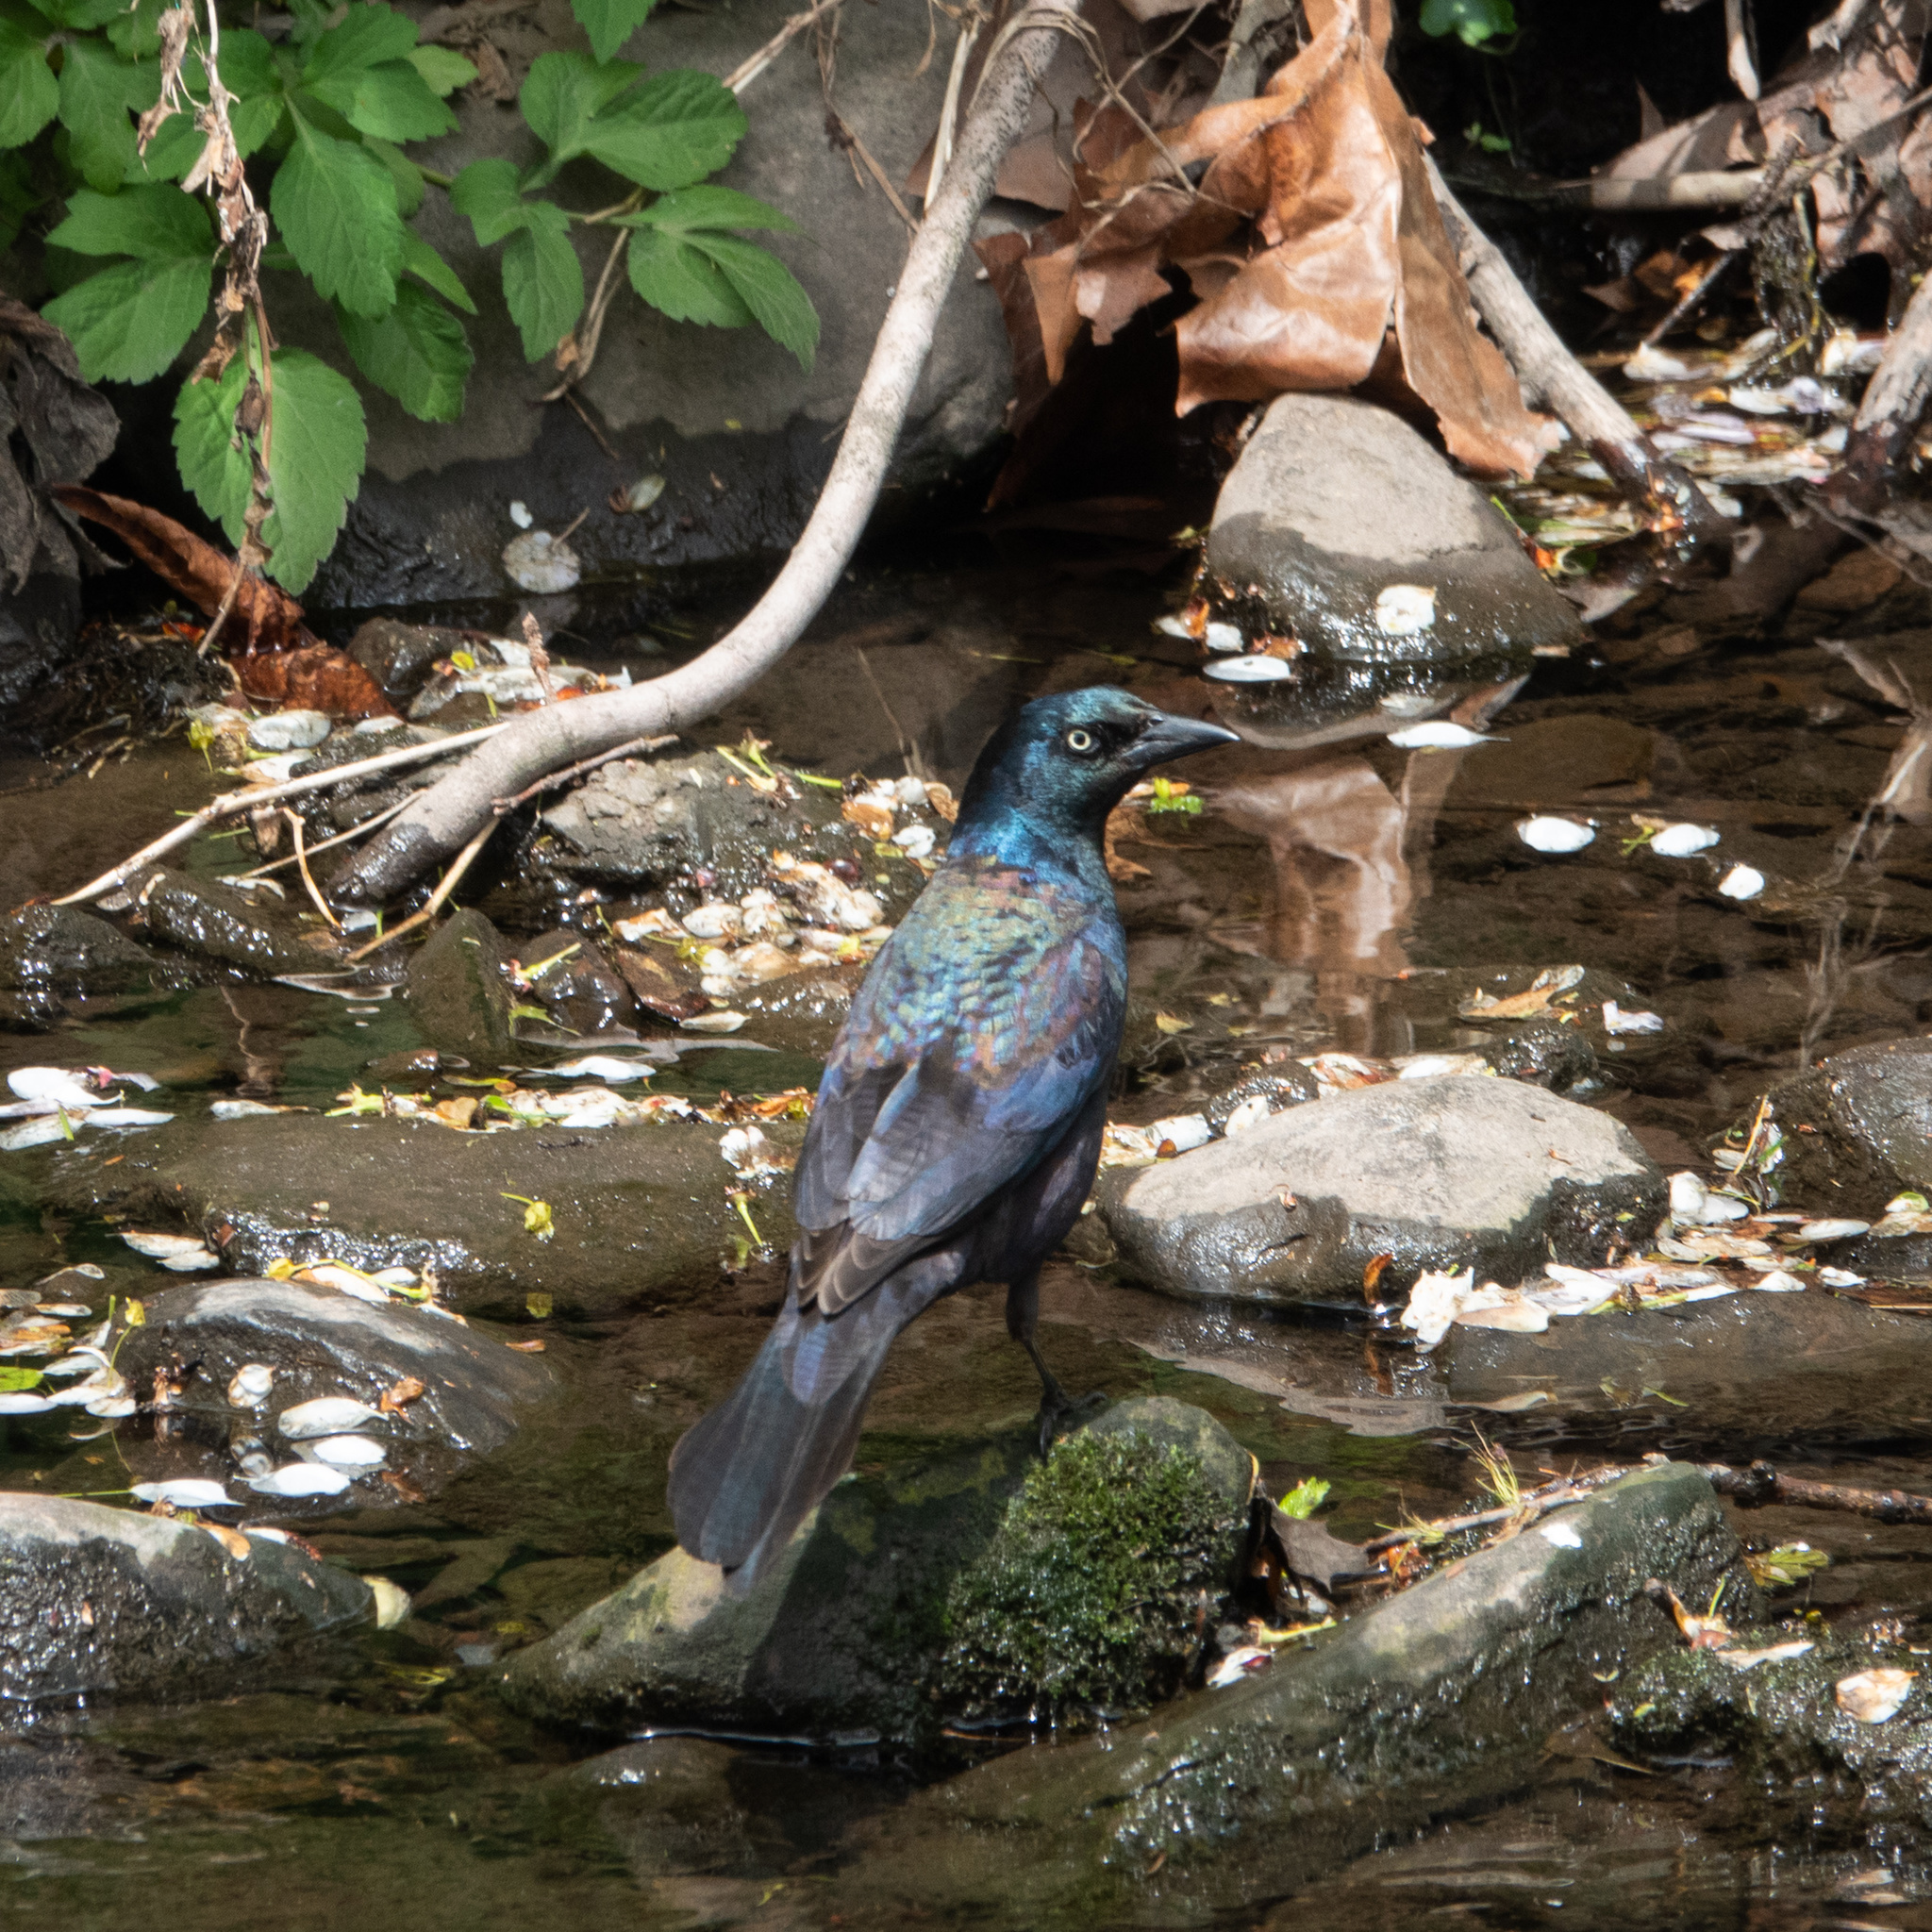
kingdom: Animalia
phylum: Chordata
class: Aves
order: Passeriformes
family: Icteridae
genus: Quiscalus
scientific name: Quiscalus quiscula
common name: Common grackle
